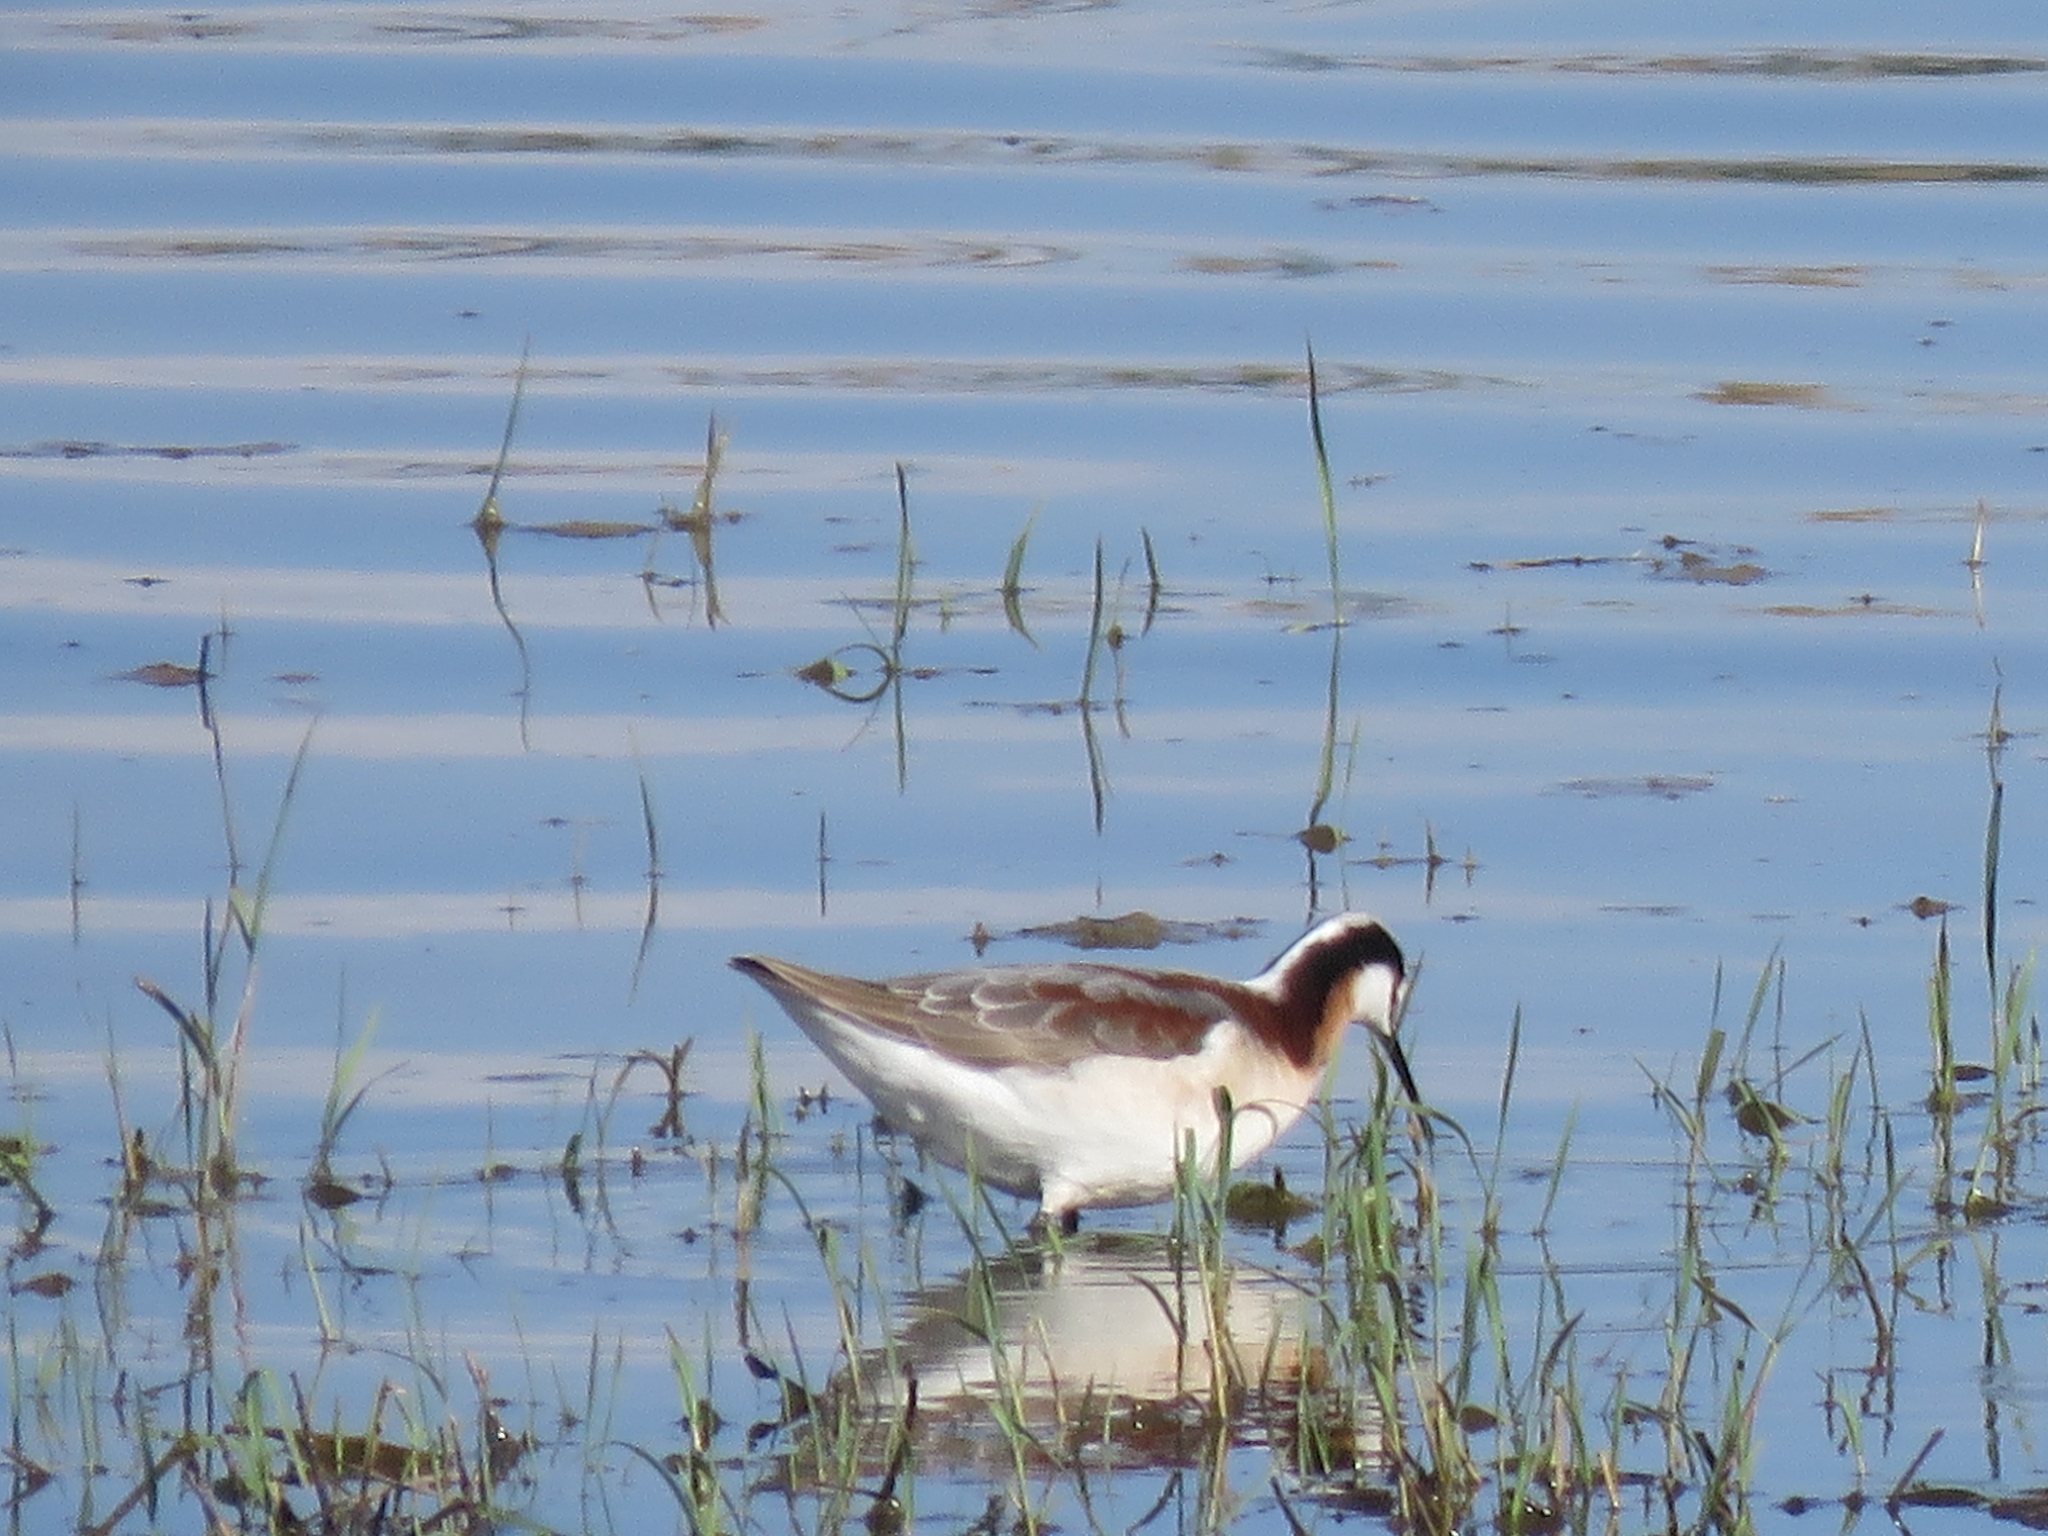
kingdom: Animalia
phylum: Chordata
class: Aves
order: Charadriiformes
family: Scolopacidae
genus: Phalaropus
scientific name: Phalaropus tricolor
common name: Wilson's phalarope
